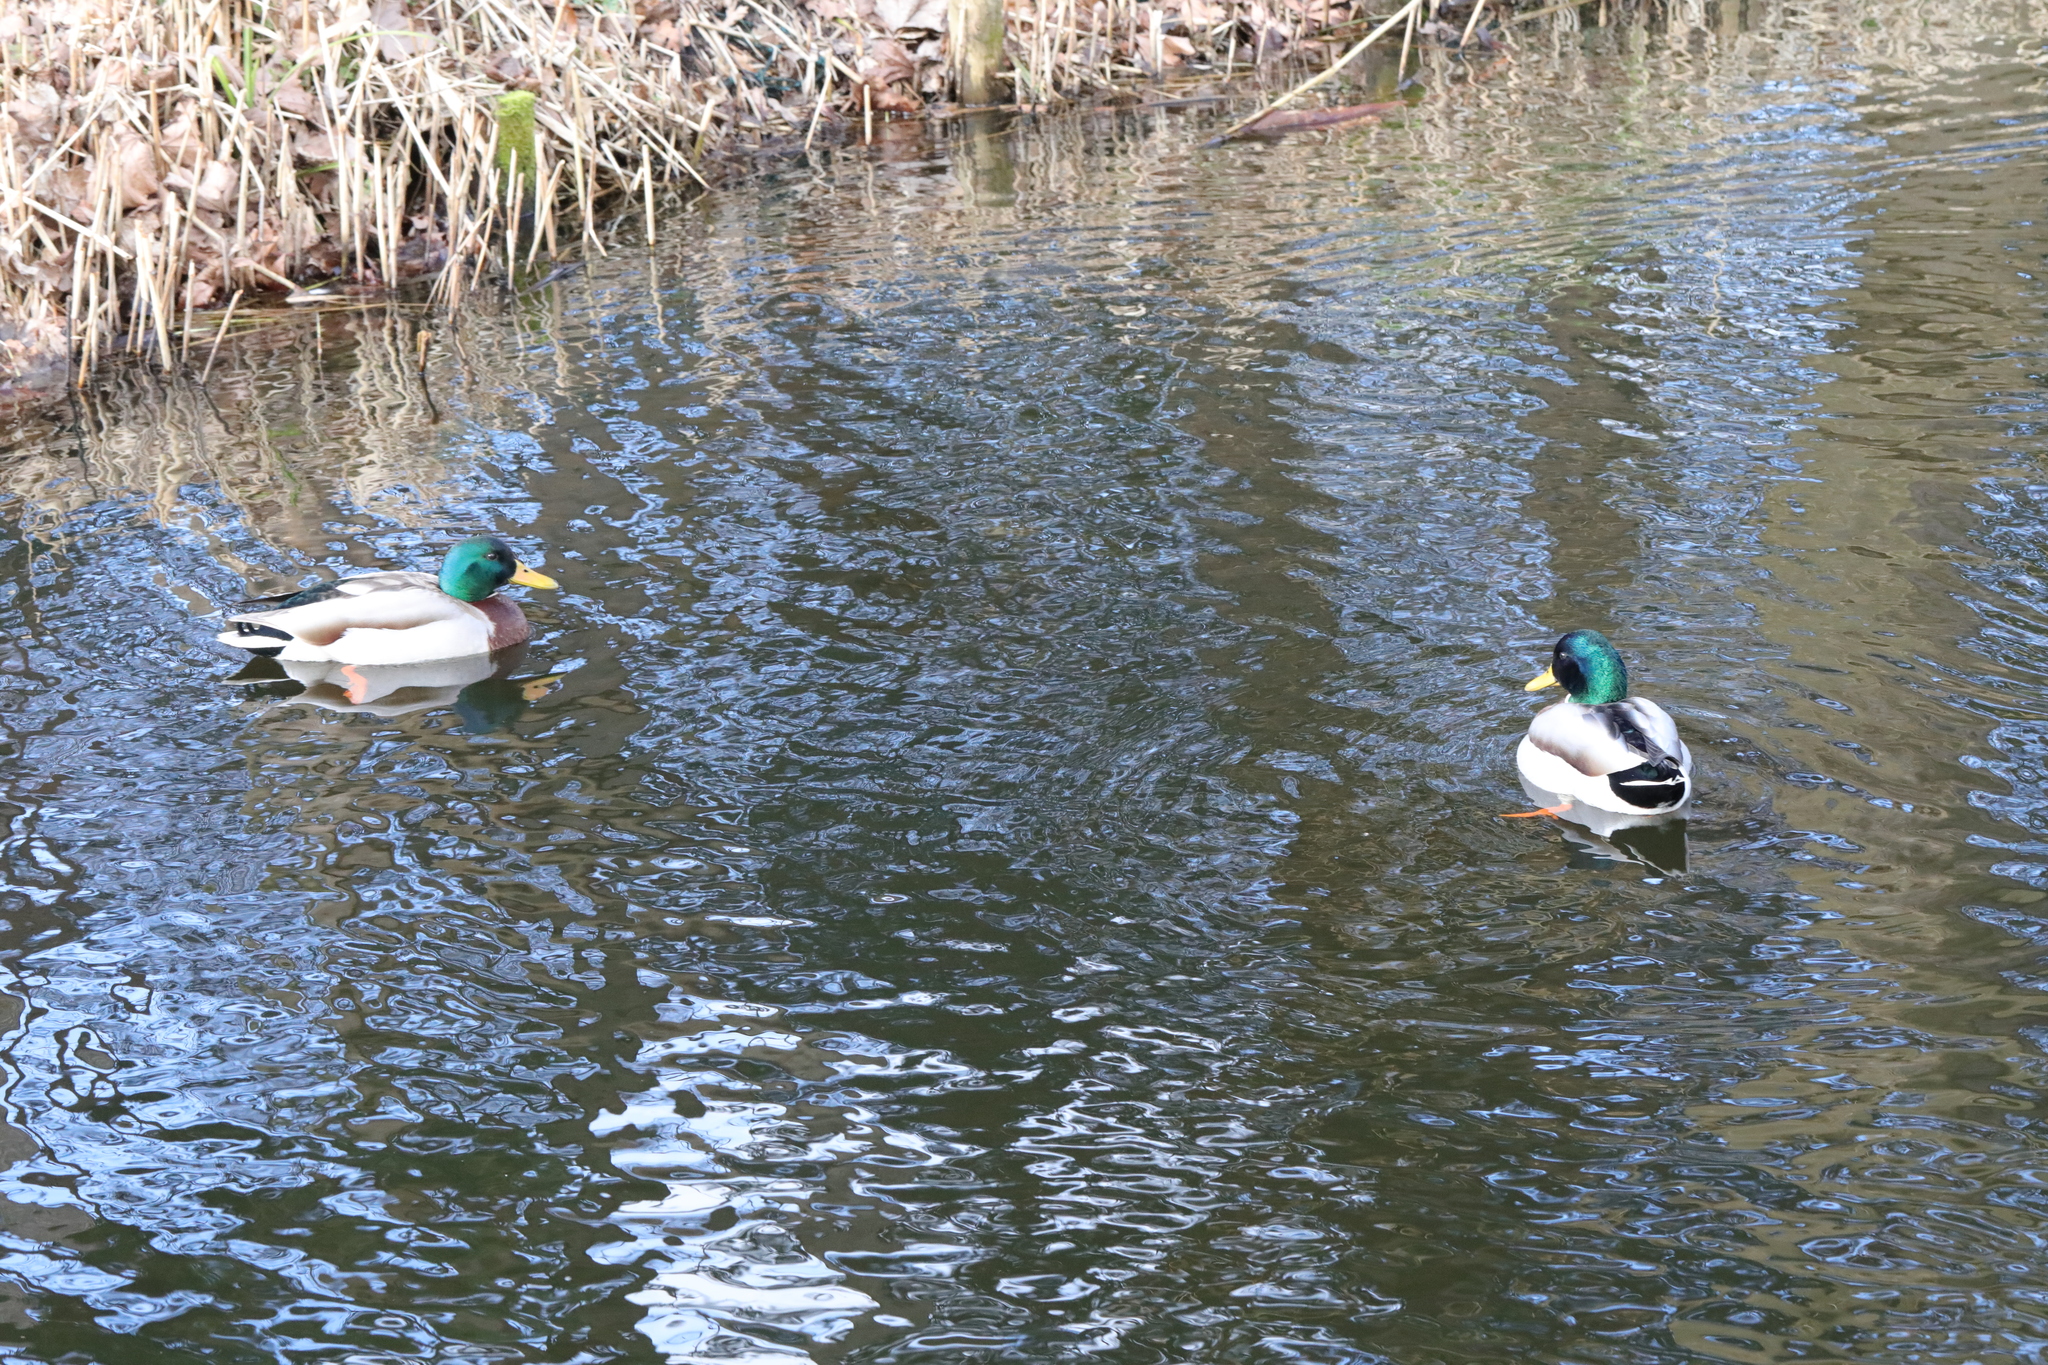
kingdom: Animalia
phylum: Chordata
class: Aves
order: Anseriformes
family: Anatidae
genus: Anas
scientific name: Anas platyrhynchos
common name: Mallard
